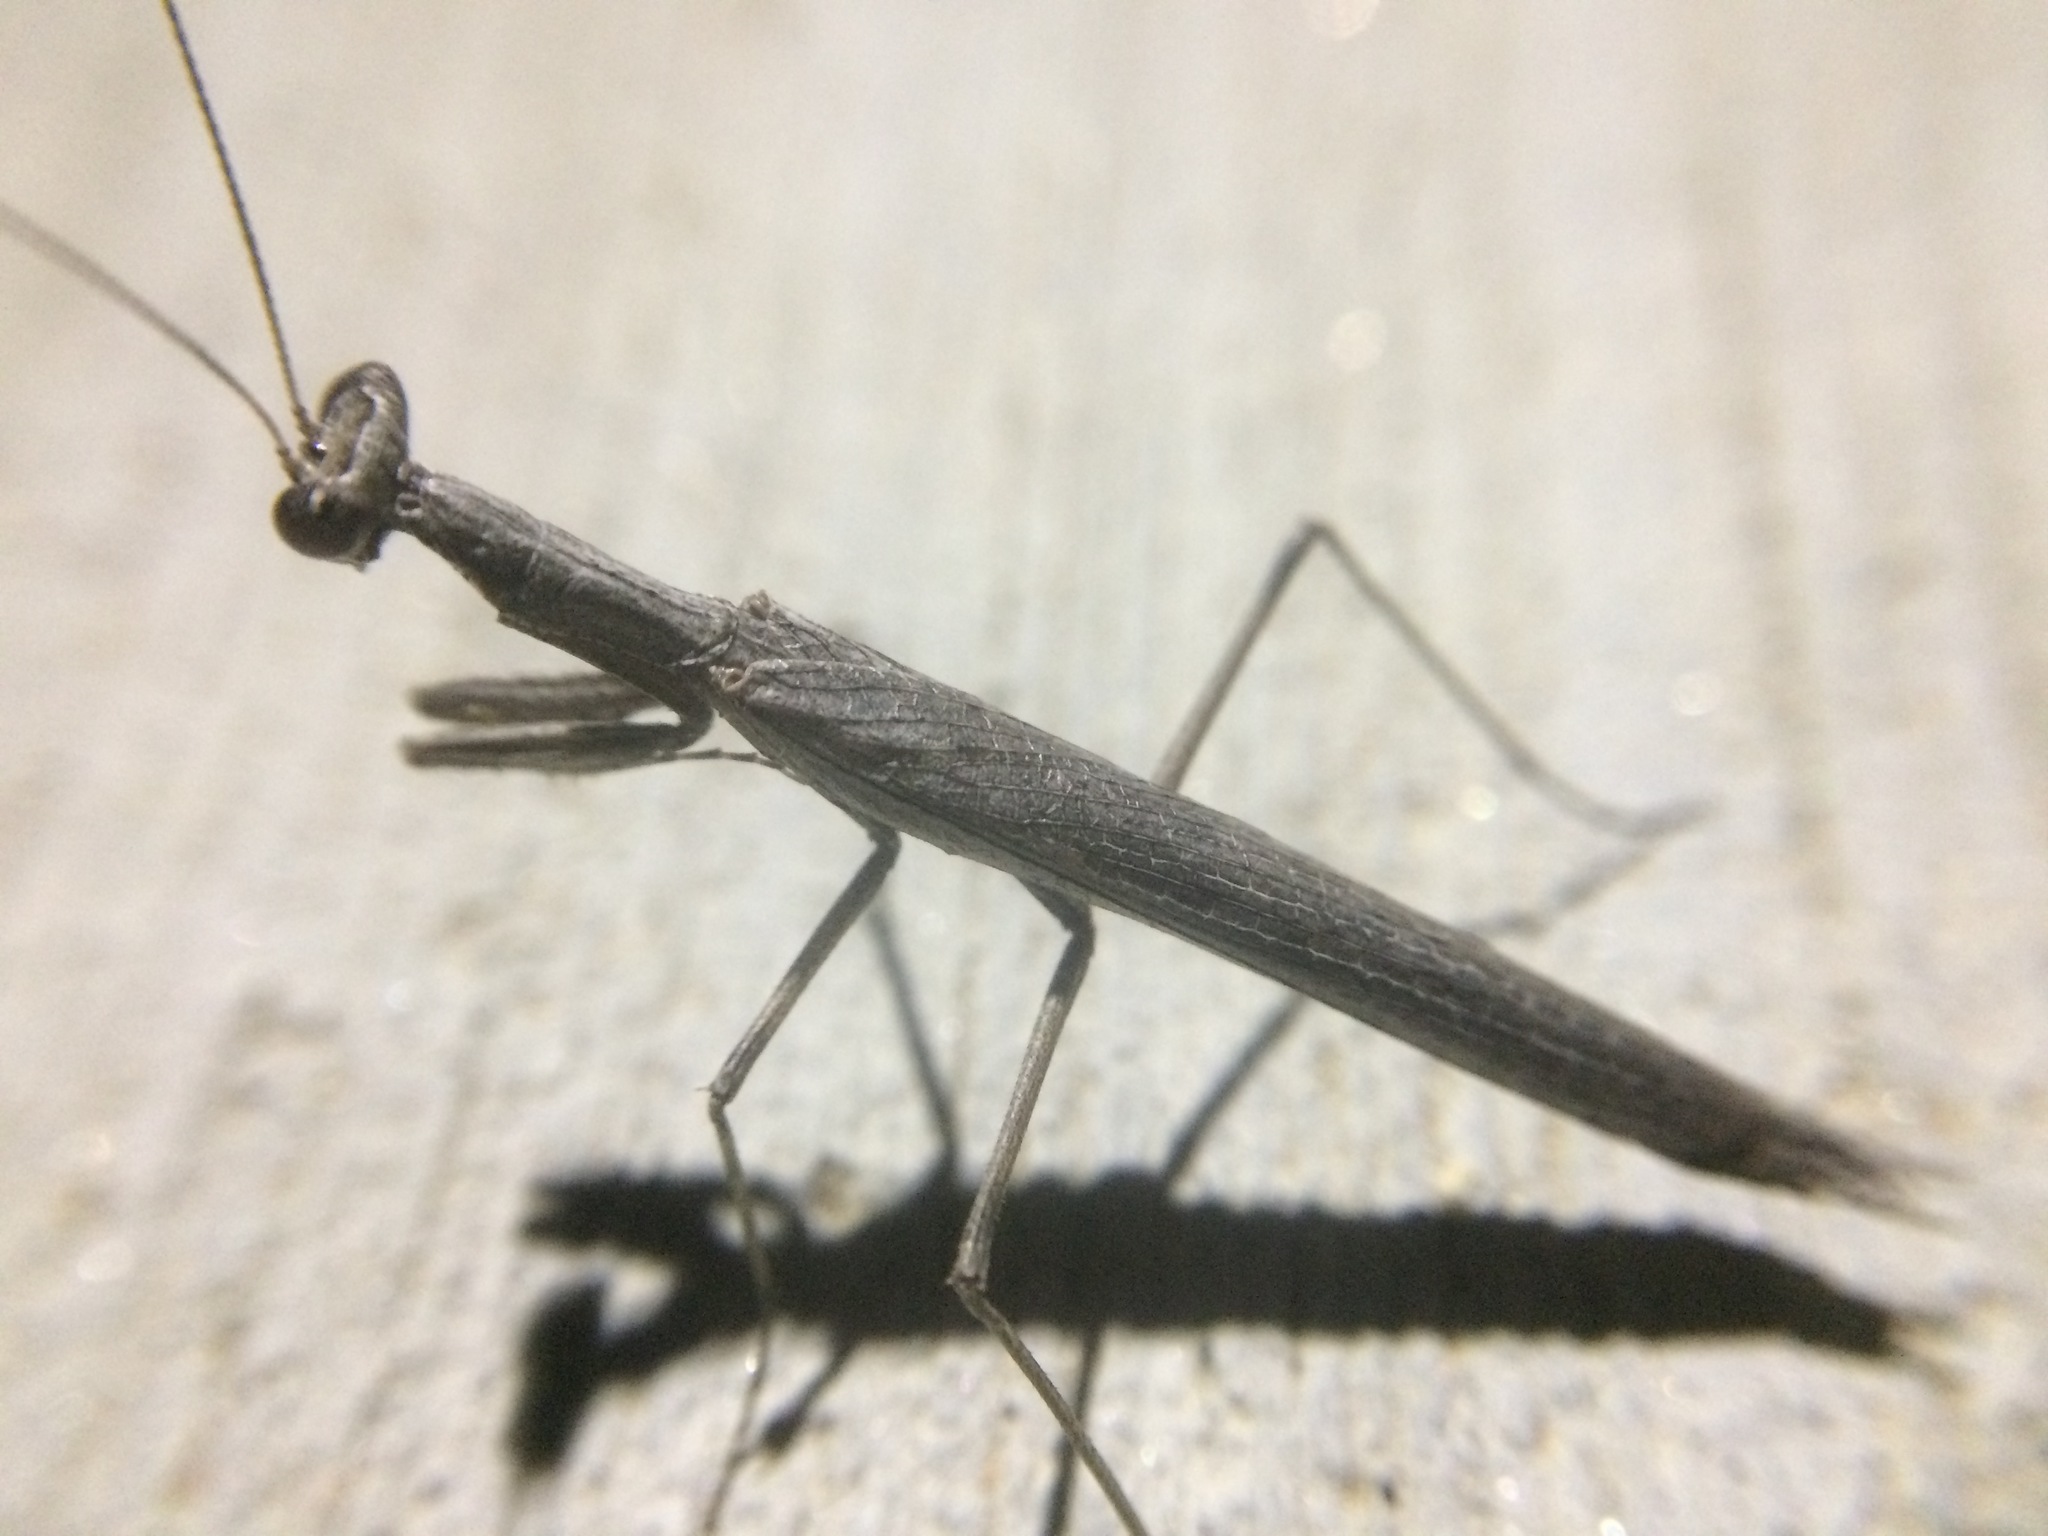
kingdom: Animalia
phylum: Arthropoda
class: Insecta
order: Mantodea
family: Amelidae
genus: Litaneutria
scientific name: Litaneutria pacifica
